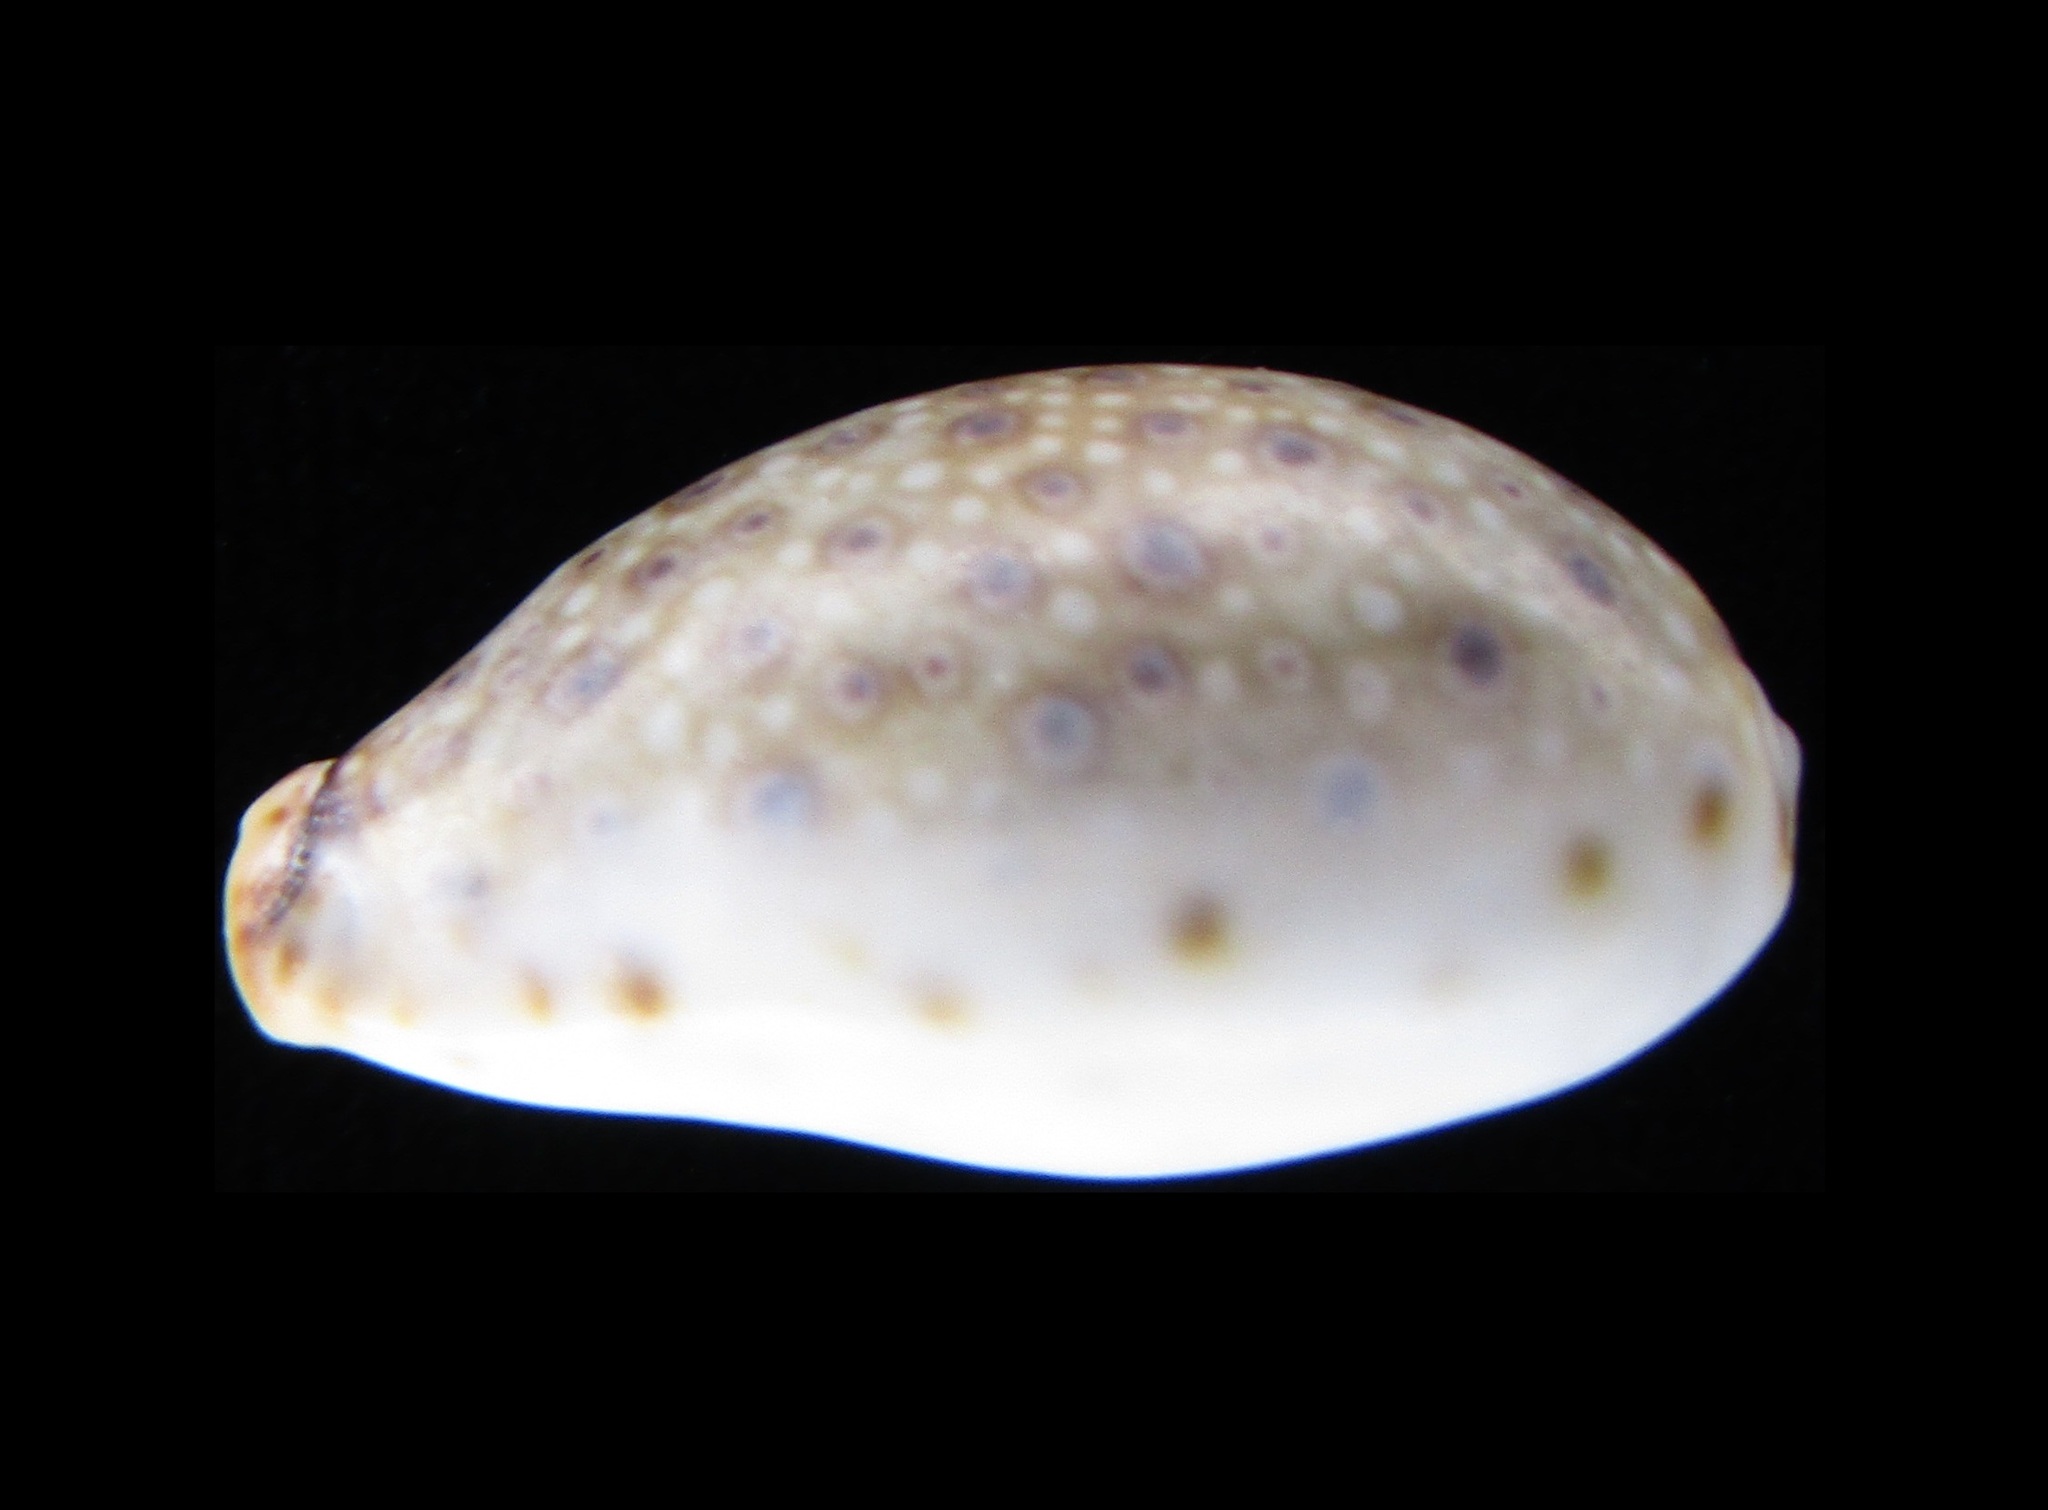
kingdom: Animalia
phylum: Mollusca
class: Gastropoda
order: Littorinimorpha
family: Cypraeidae
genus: Naria
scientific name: Naria boivinii
